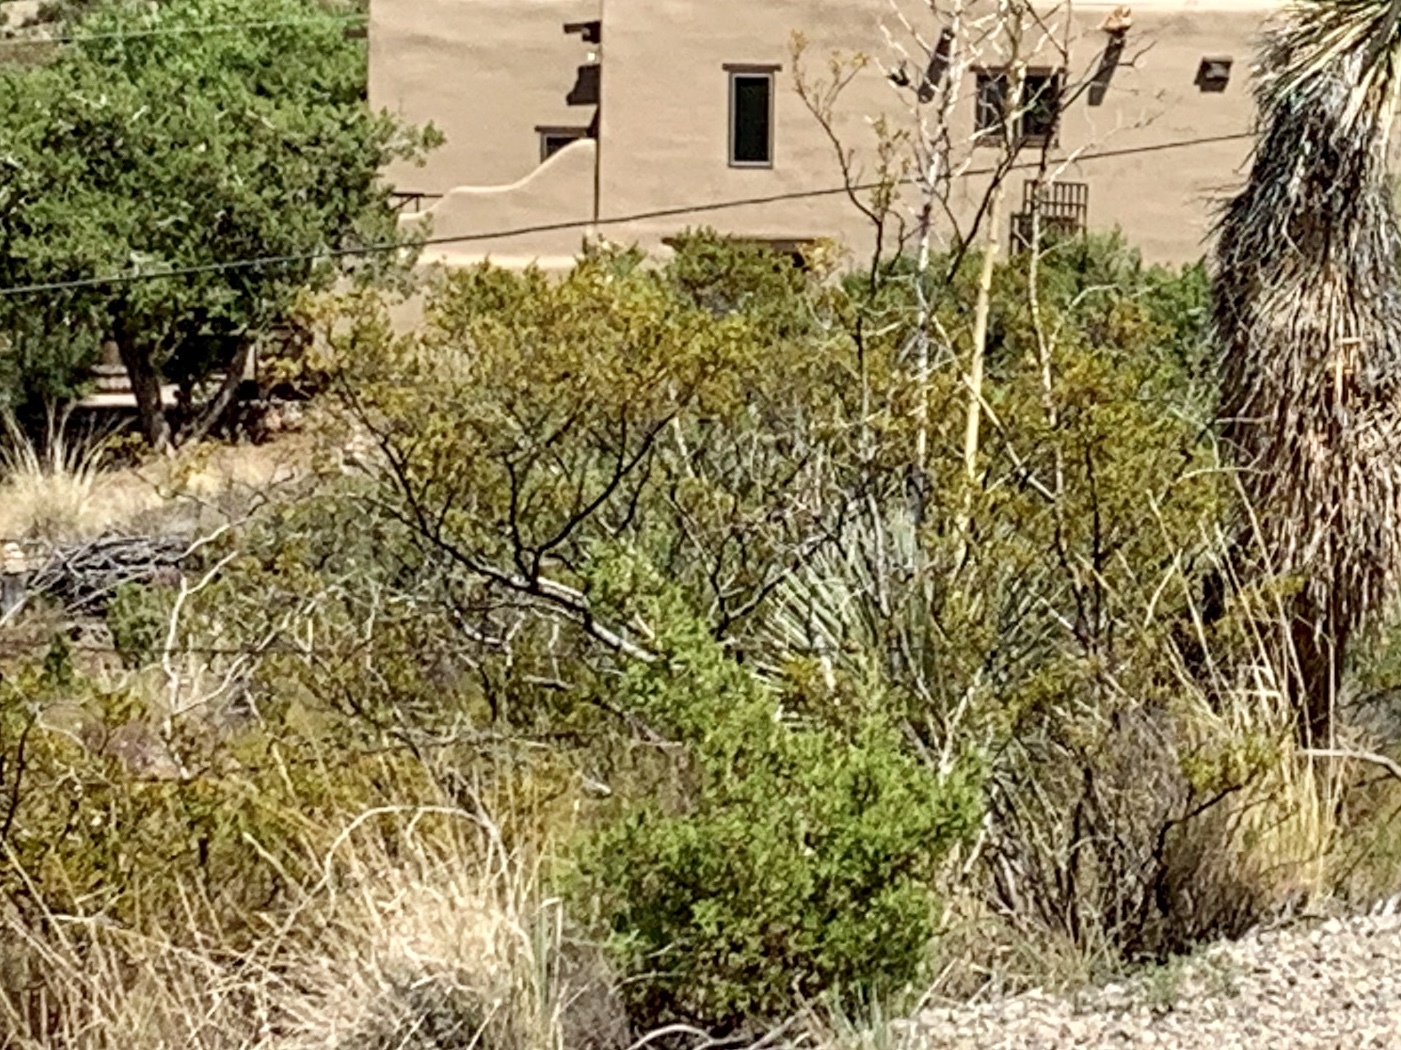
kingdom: Plantae
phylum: Tracheophyta
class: Magnoliopsida
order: Zygophyllales
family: Zygophyllaceae
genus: Larrea
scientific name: Larrea tridentata
